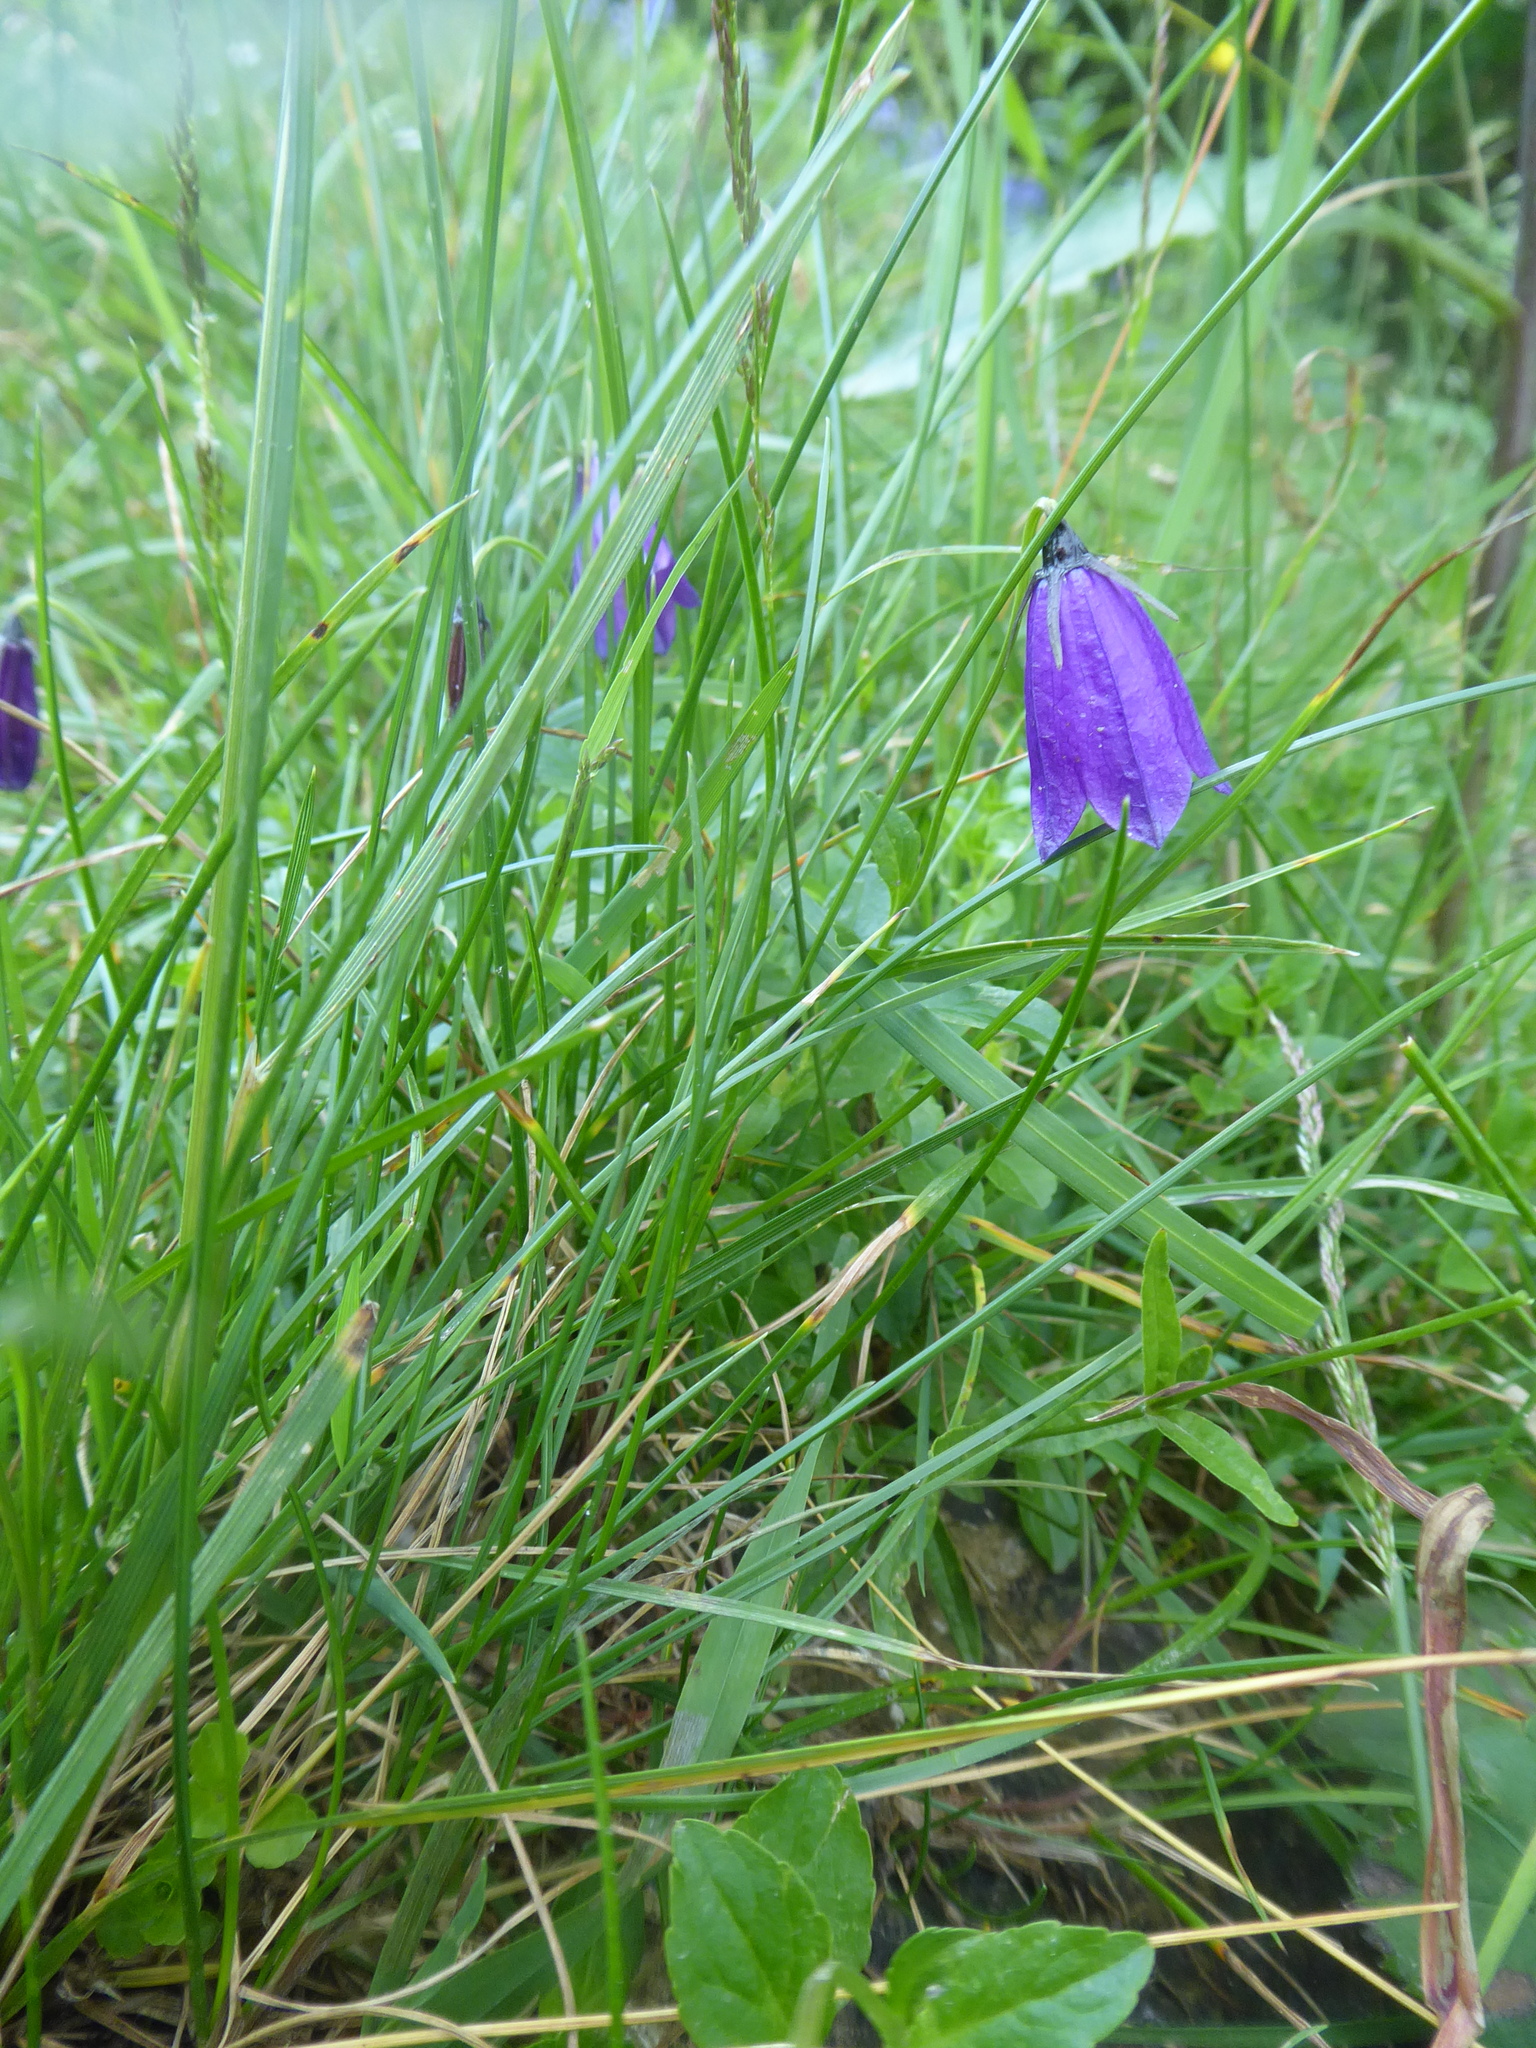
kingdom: Plantae
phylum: Tracheophyta
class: Magnoliopsida
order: Asterales
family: Campanulaceae
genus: Campanula
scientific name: Campanula scheuchzeri
